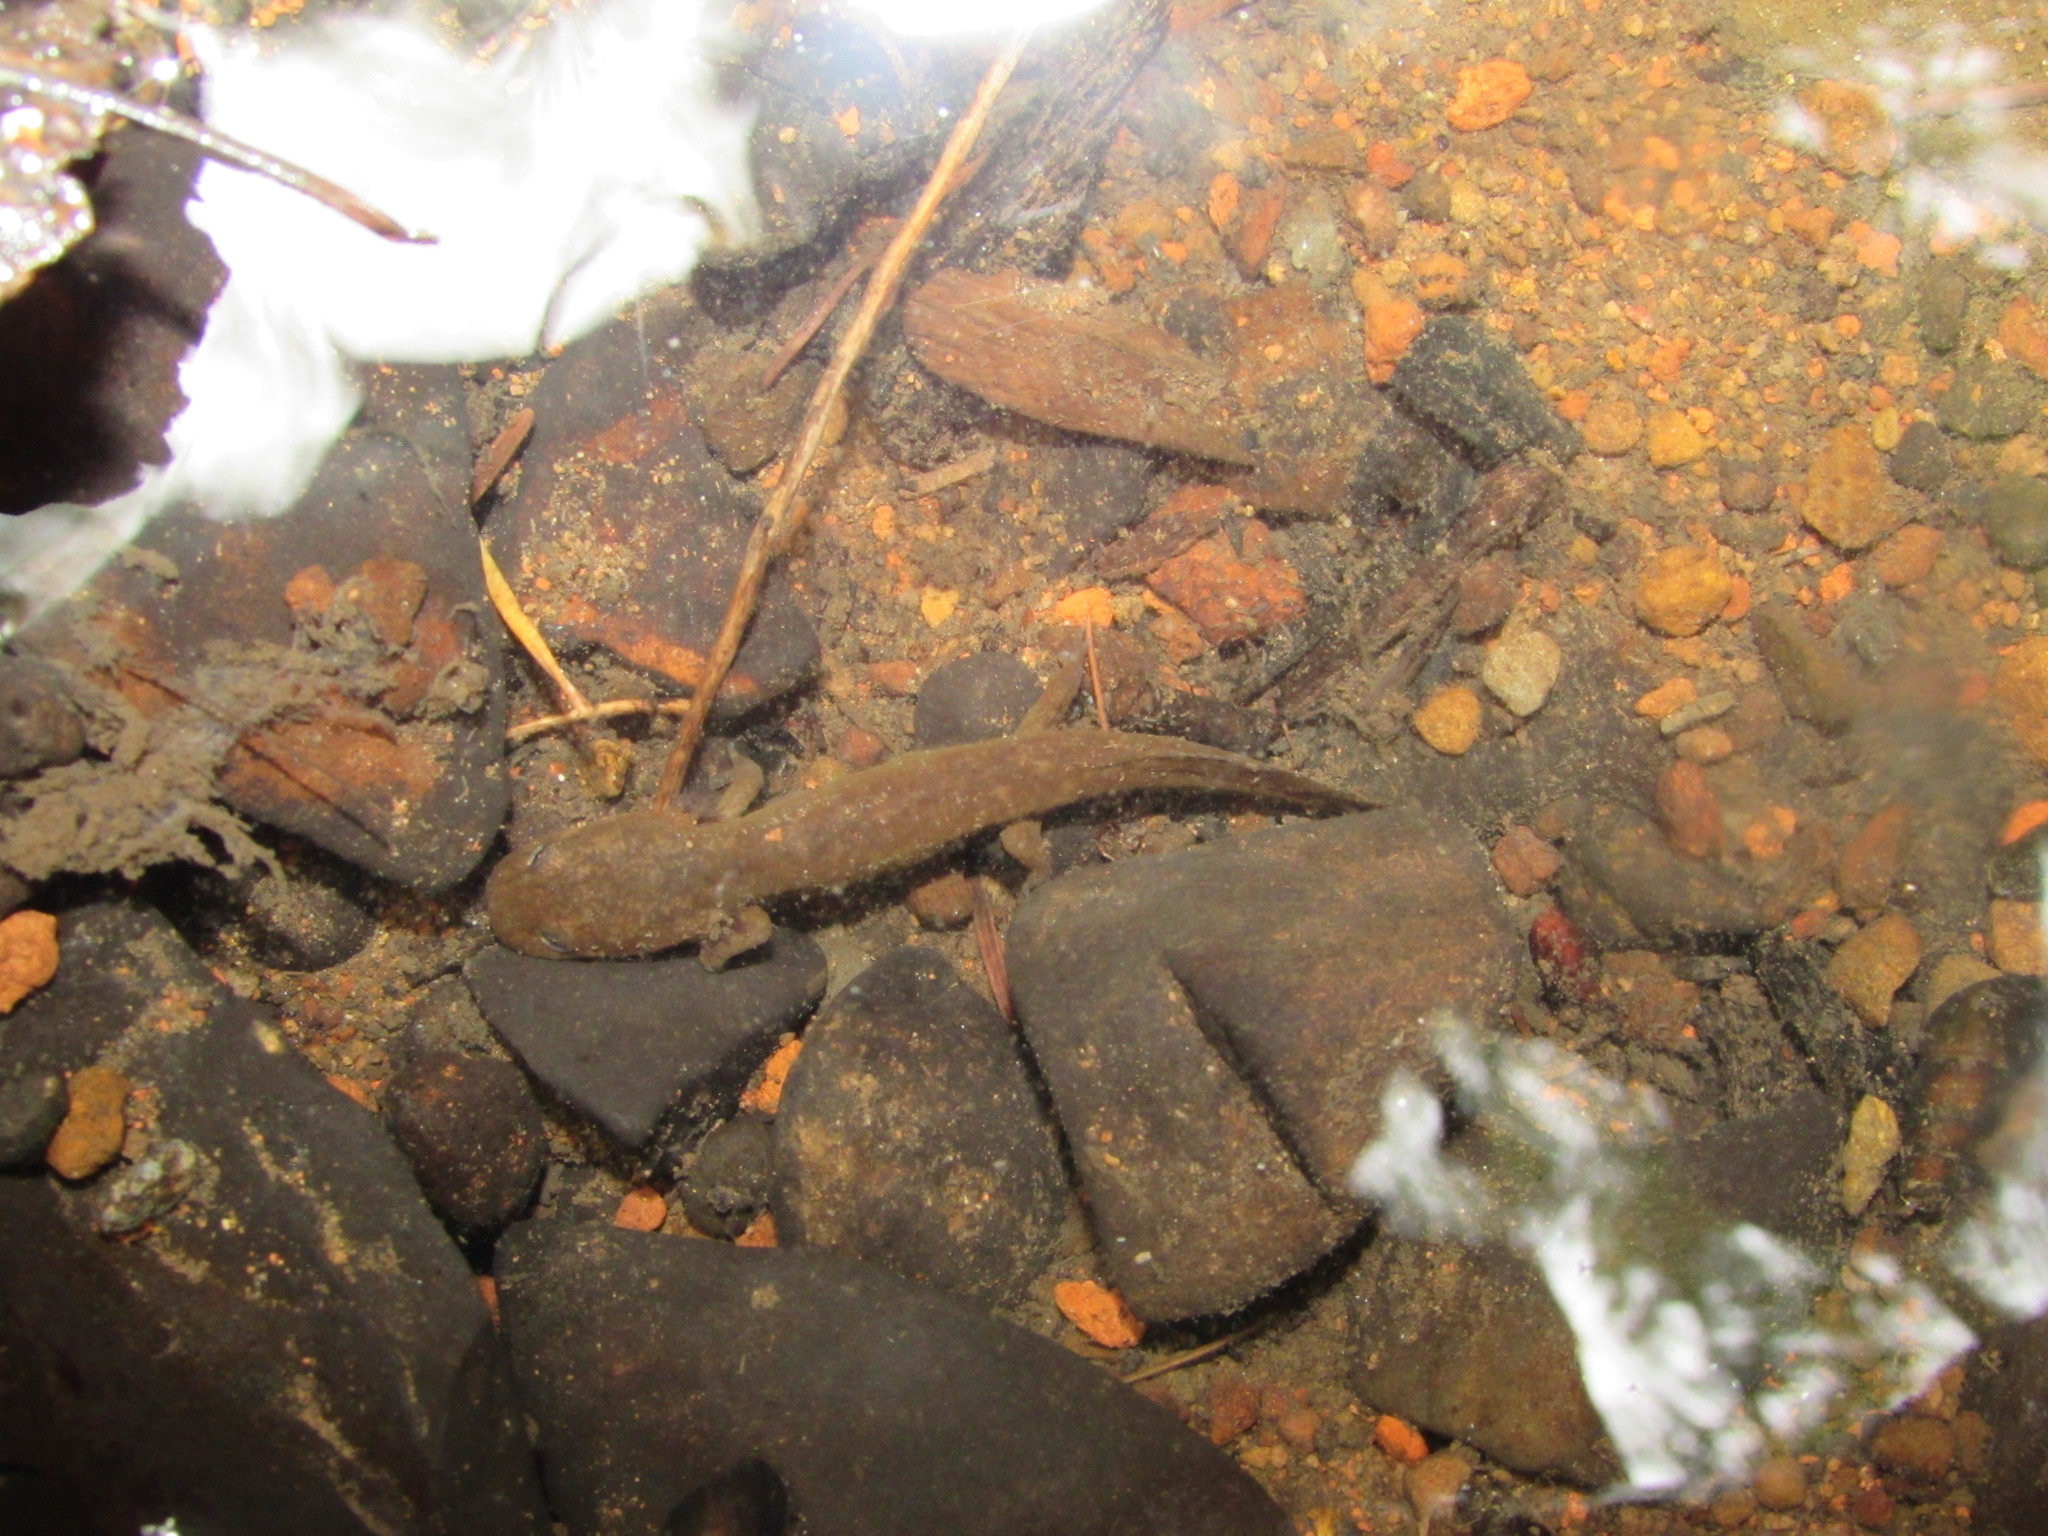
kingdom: Animalia
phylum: Chordata
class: Amphibia
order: Caudata
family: Ambystomatidae
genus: Dicamptodon
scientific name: Dicamptodon tenebrosus
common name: Coastal giant salamander
